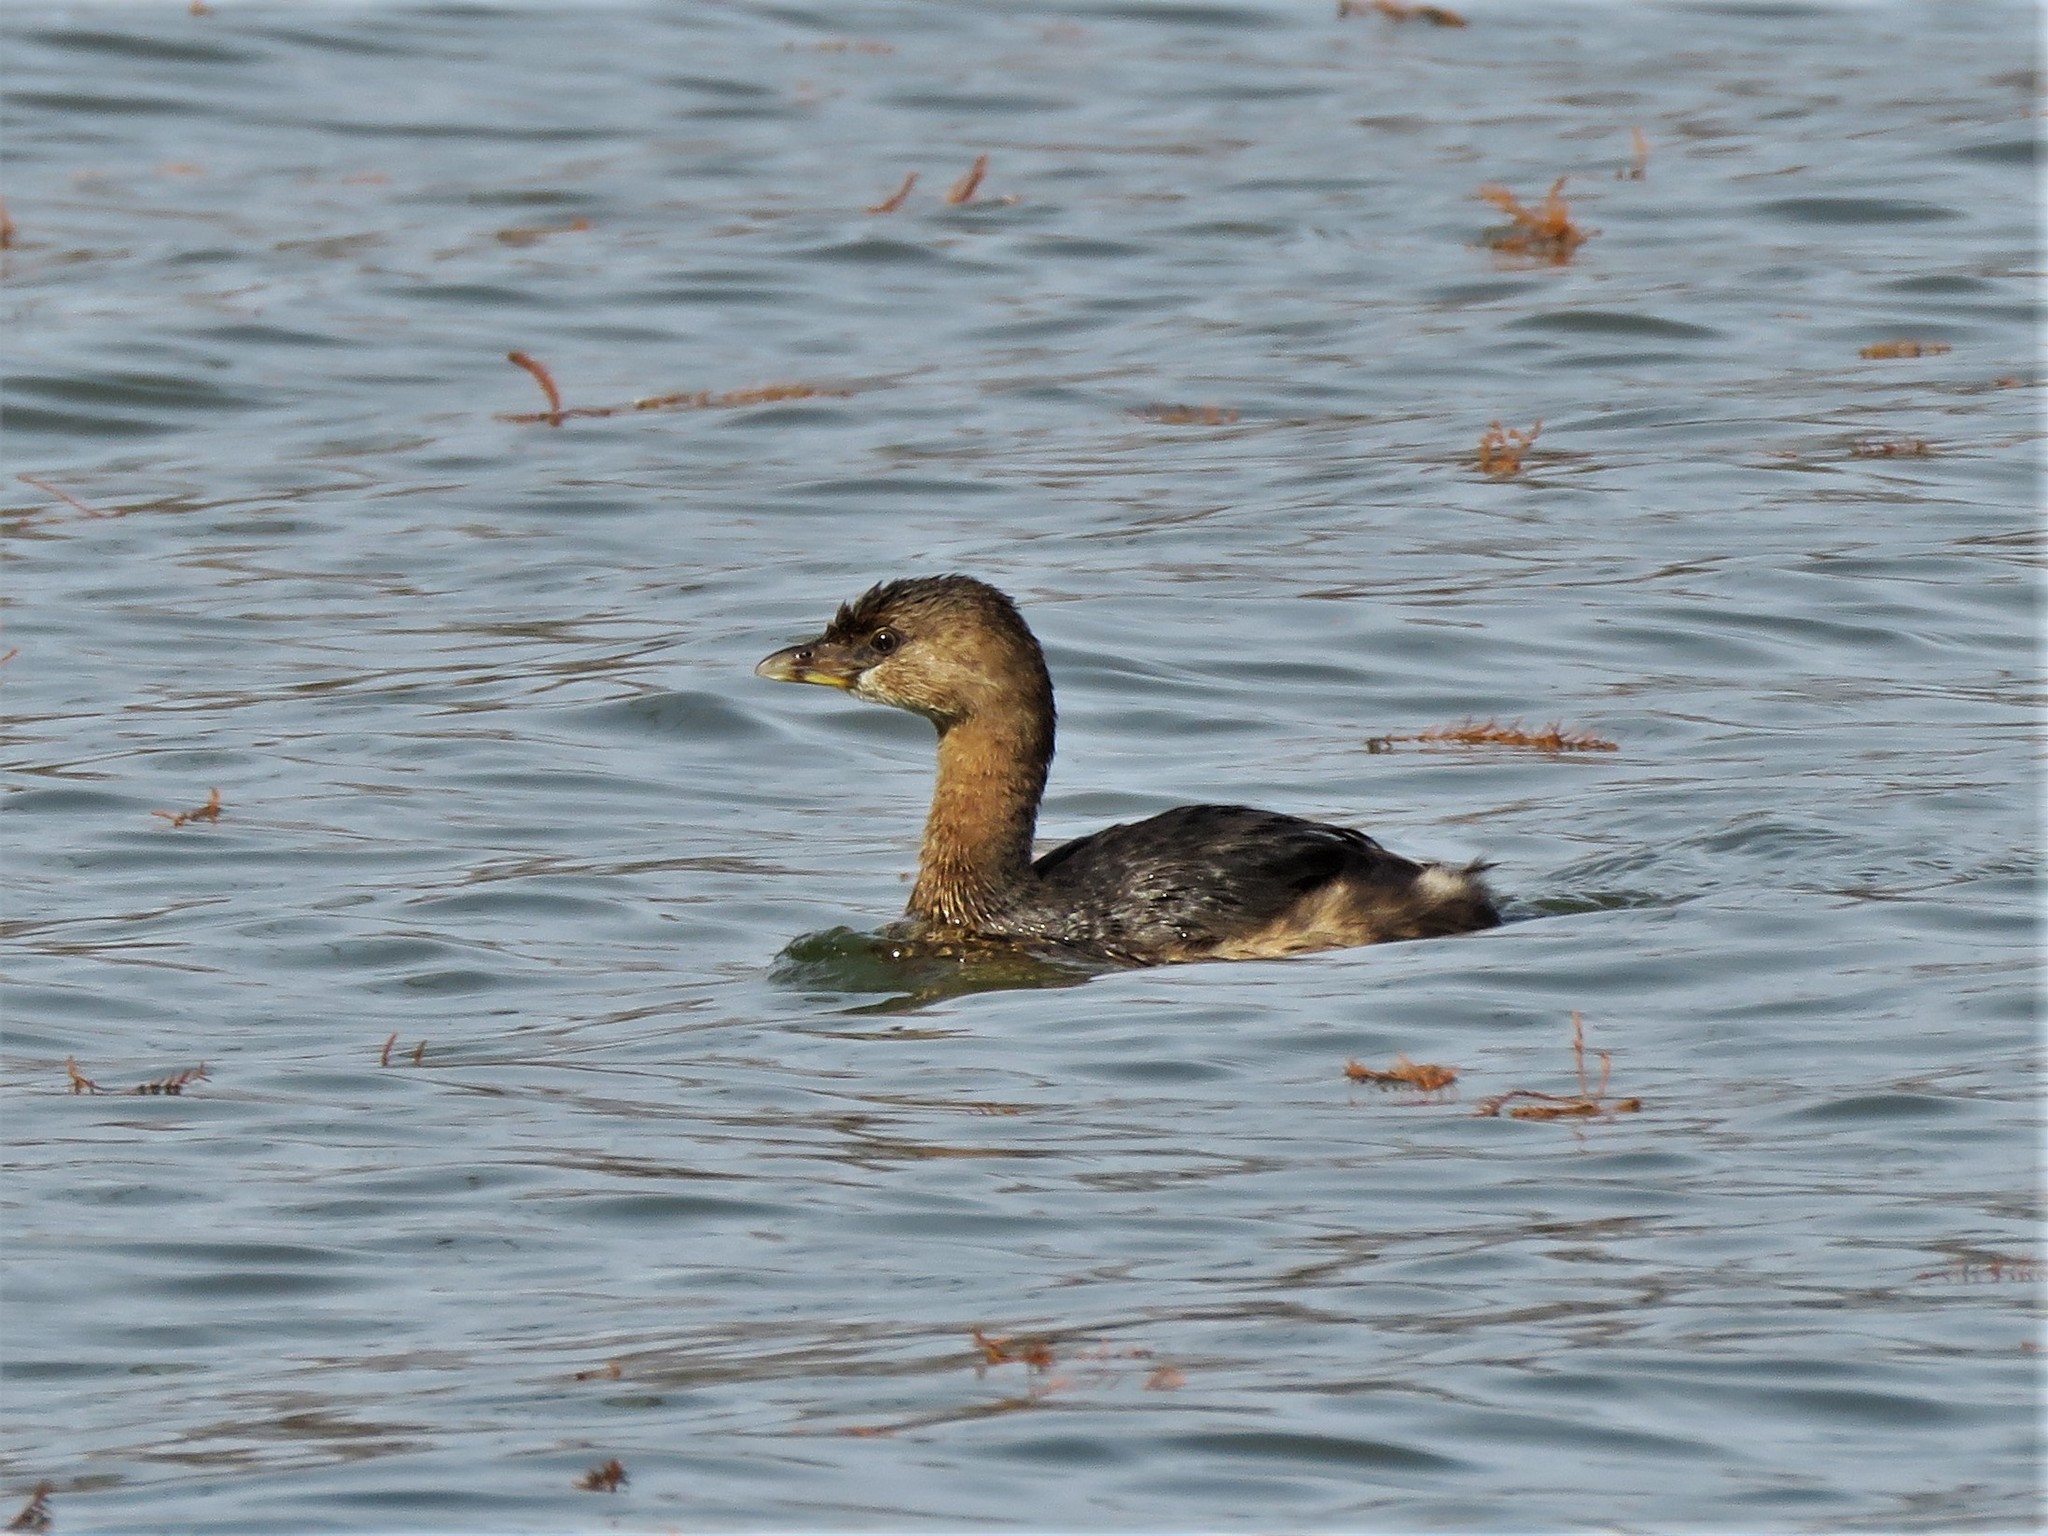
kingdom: Animalia
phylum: Chordata
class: Aves
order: Podicipediformes
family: Podicipedidae
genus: Podilymbus
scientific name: Podilymbus podiceps
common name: Pied-billed grebe
